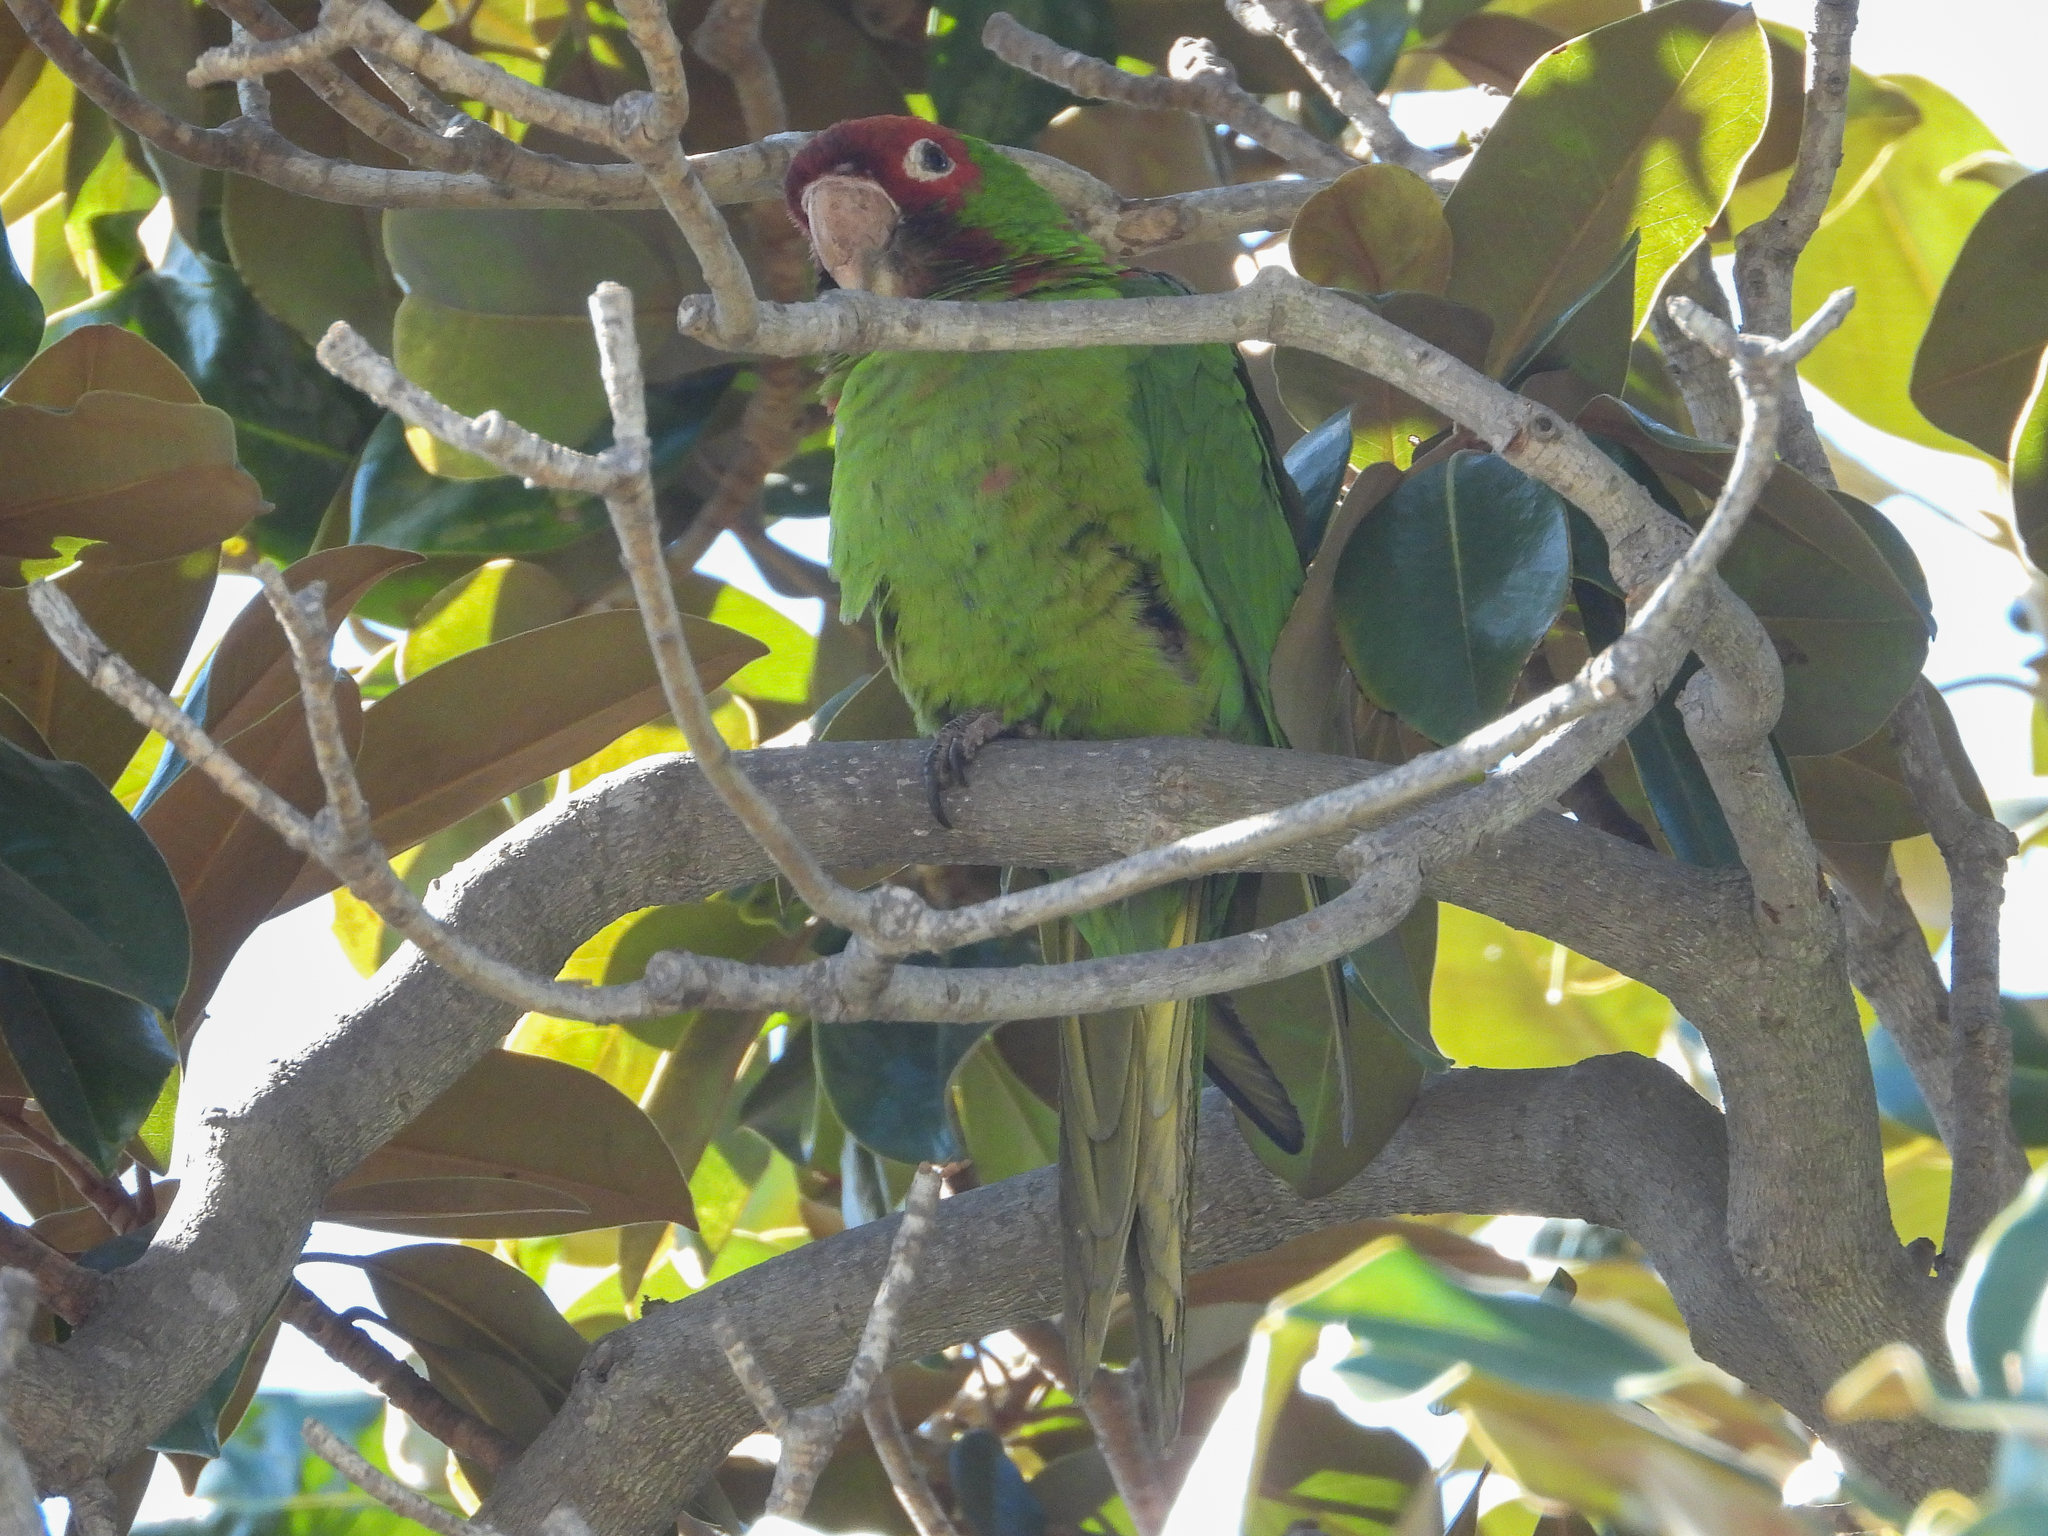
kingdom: Animalia
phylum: Chordata
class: Aves
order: Psittaciformes
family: Psittacidae
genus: Aratinga
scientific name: Aratinga mitrata
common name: Mitred parakeet
